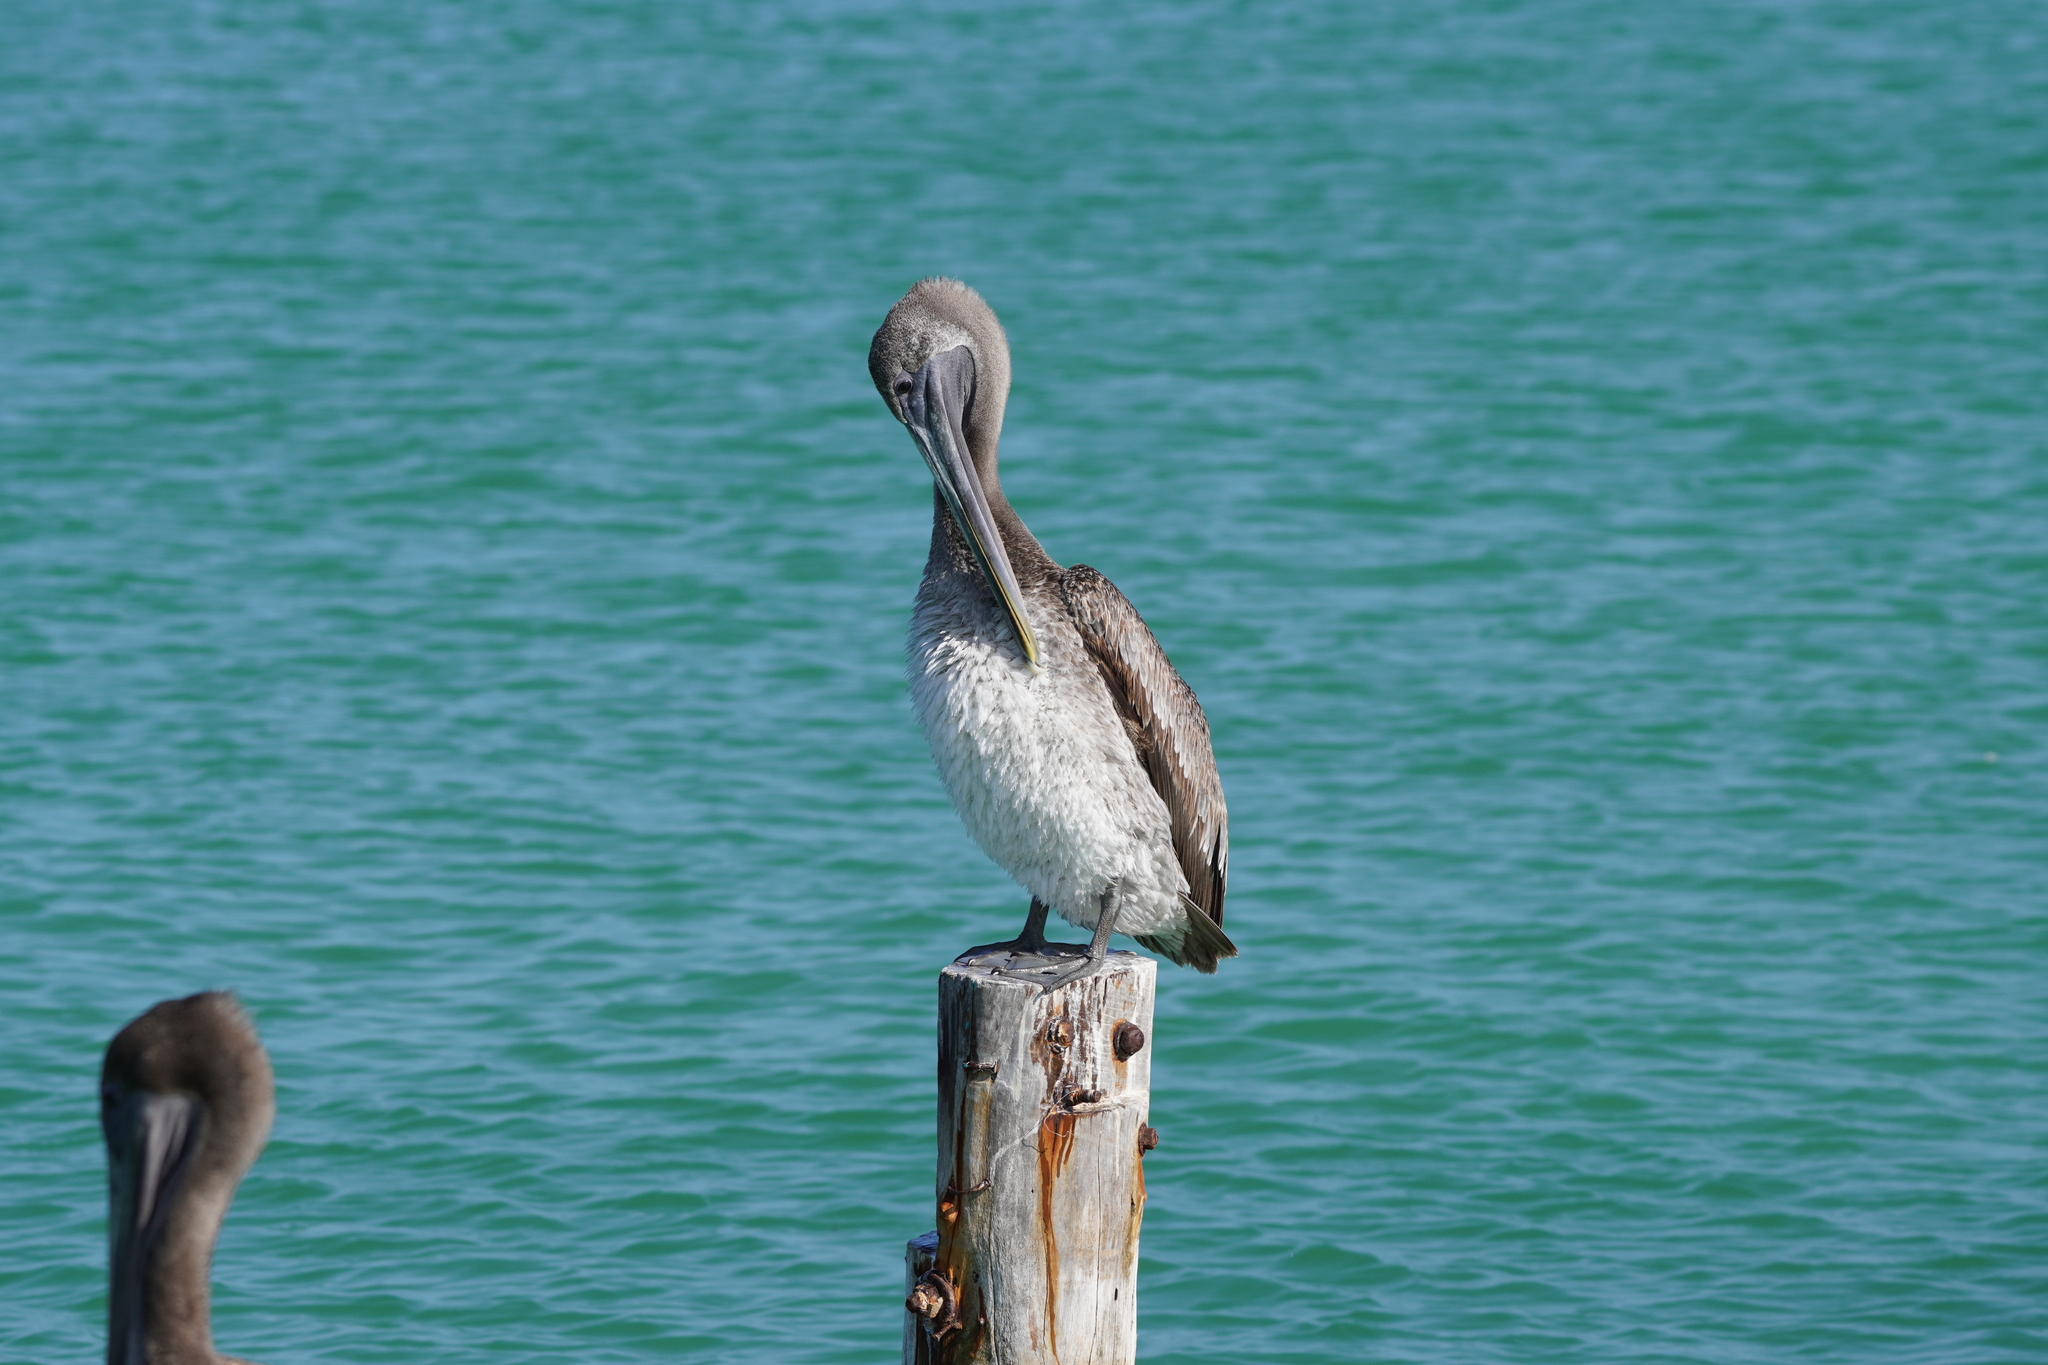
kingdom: Animalia
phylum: Chordata
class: Aves
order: Pelecaniformes
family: Pelecanidae
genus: Pelecanus
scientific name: Pelecanus occidentalis
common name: Brown pelican
